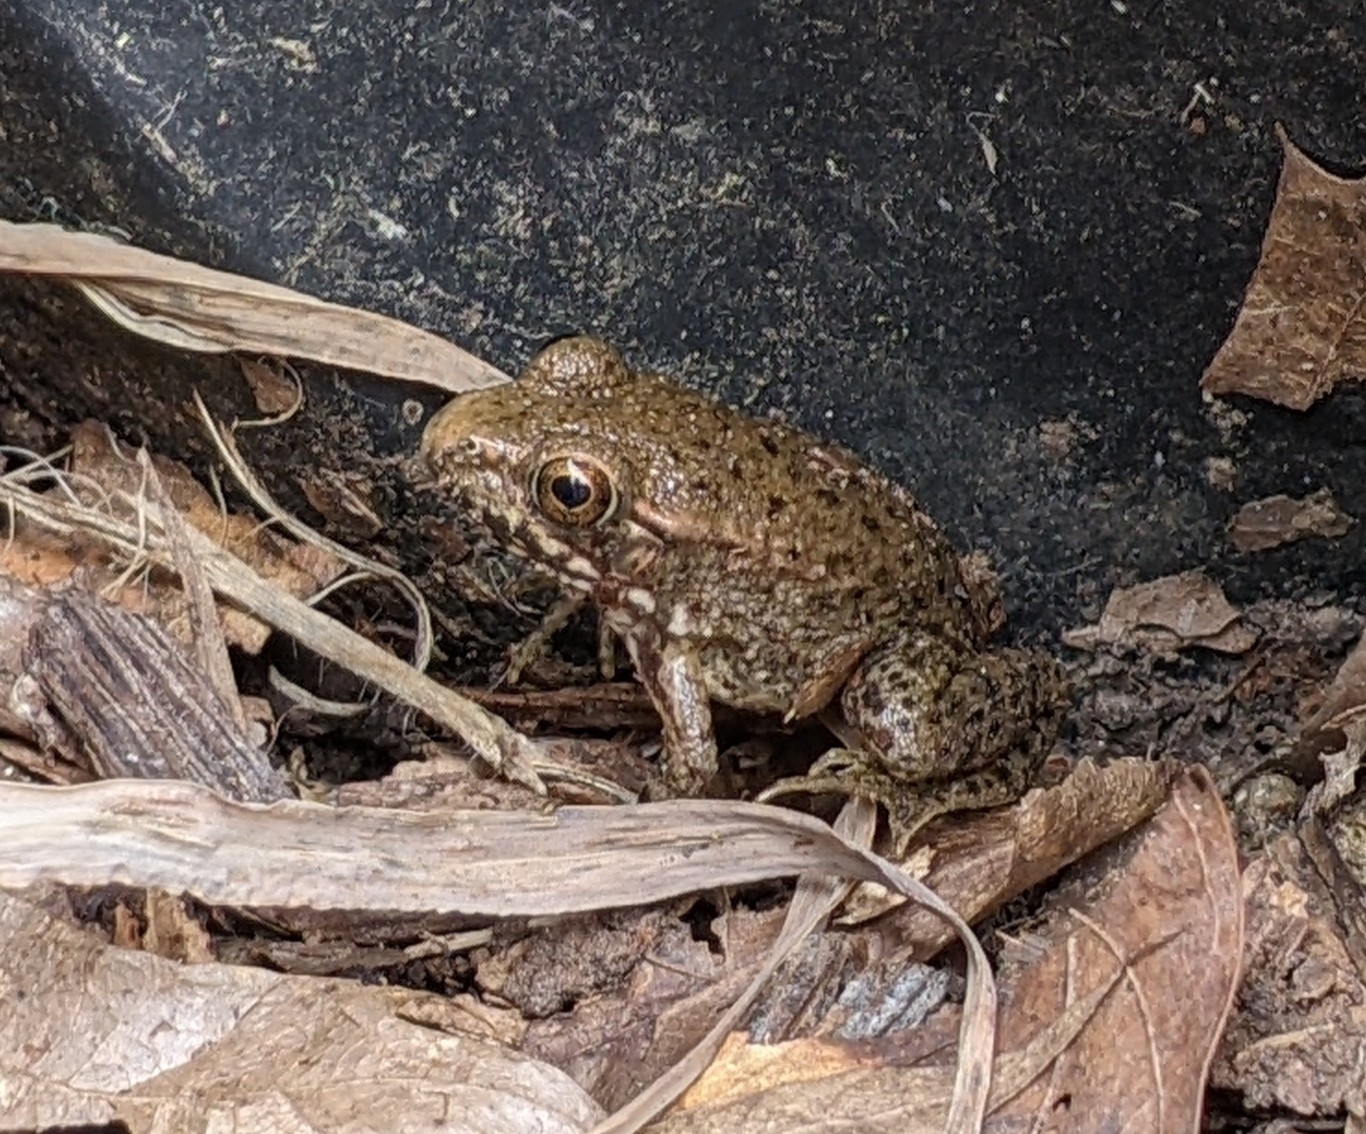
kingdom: Animalia
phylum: Chordata
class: Amphibia
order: Anura
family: Ranidae
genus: Lithobates
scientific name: Lithobates clamitans
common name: Green frog
